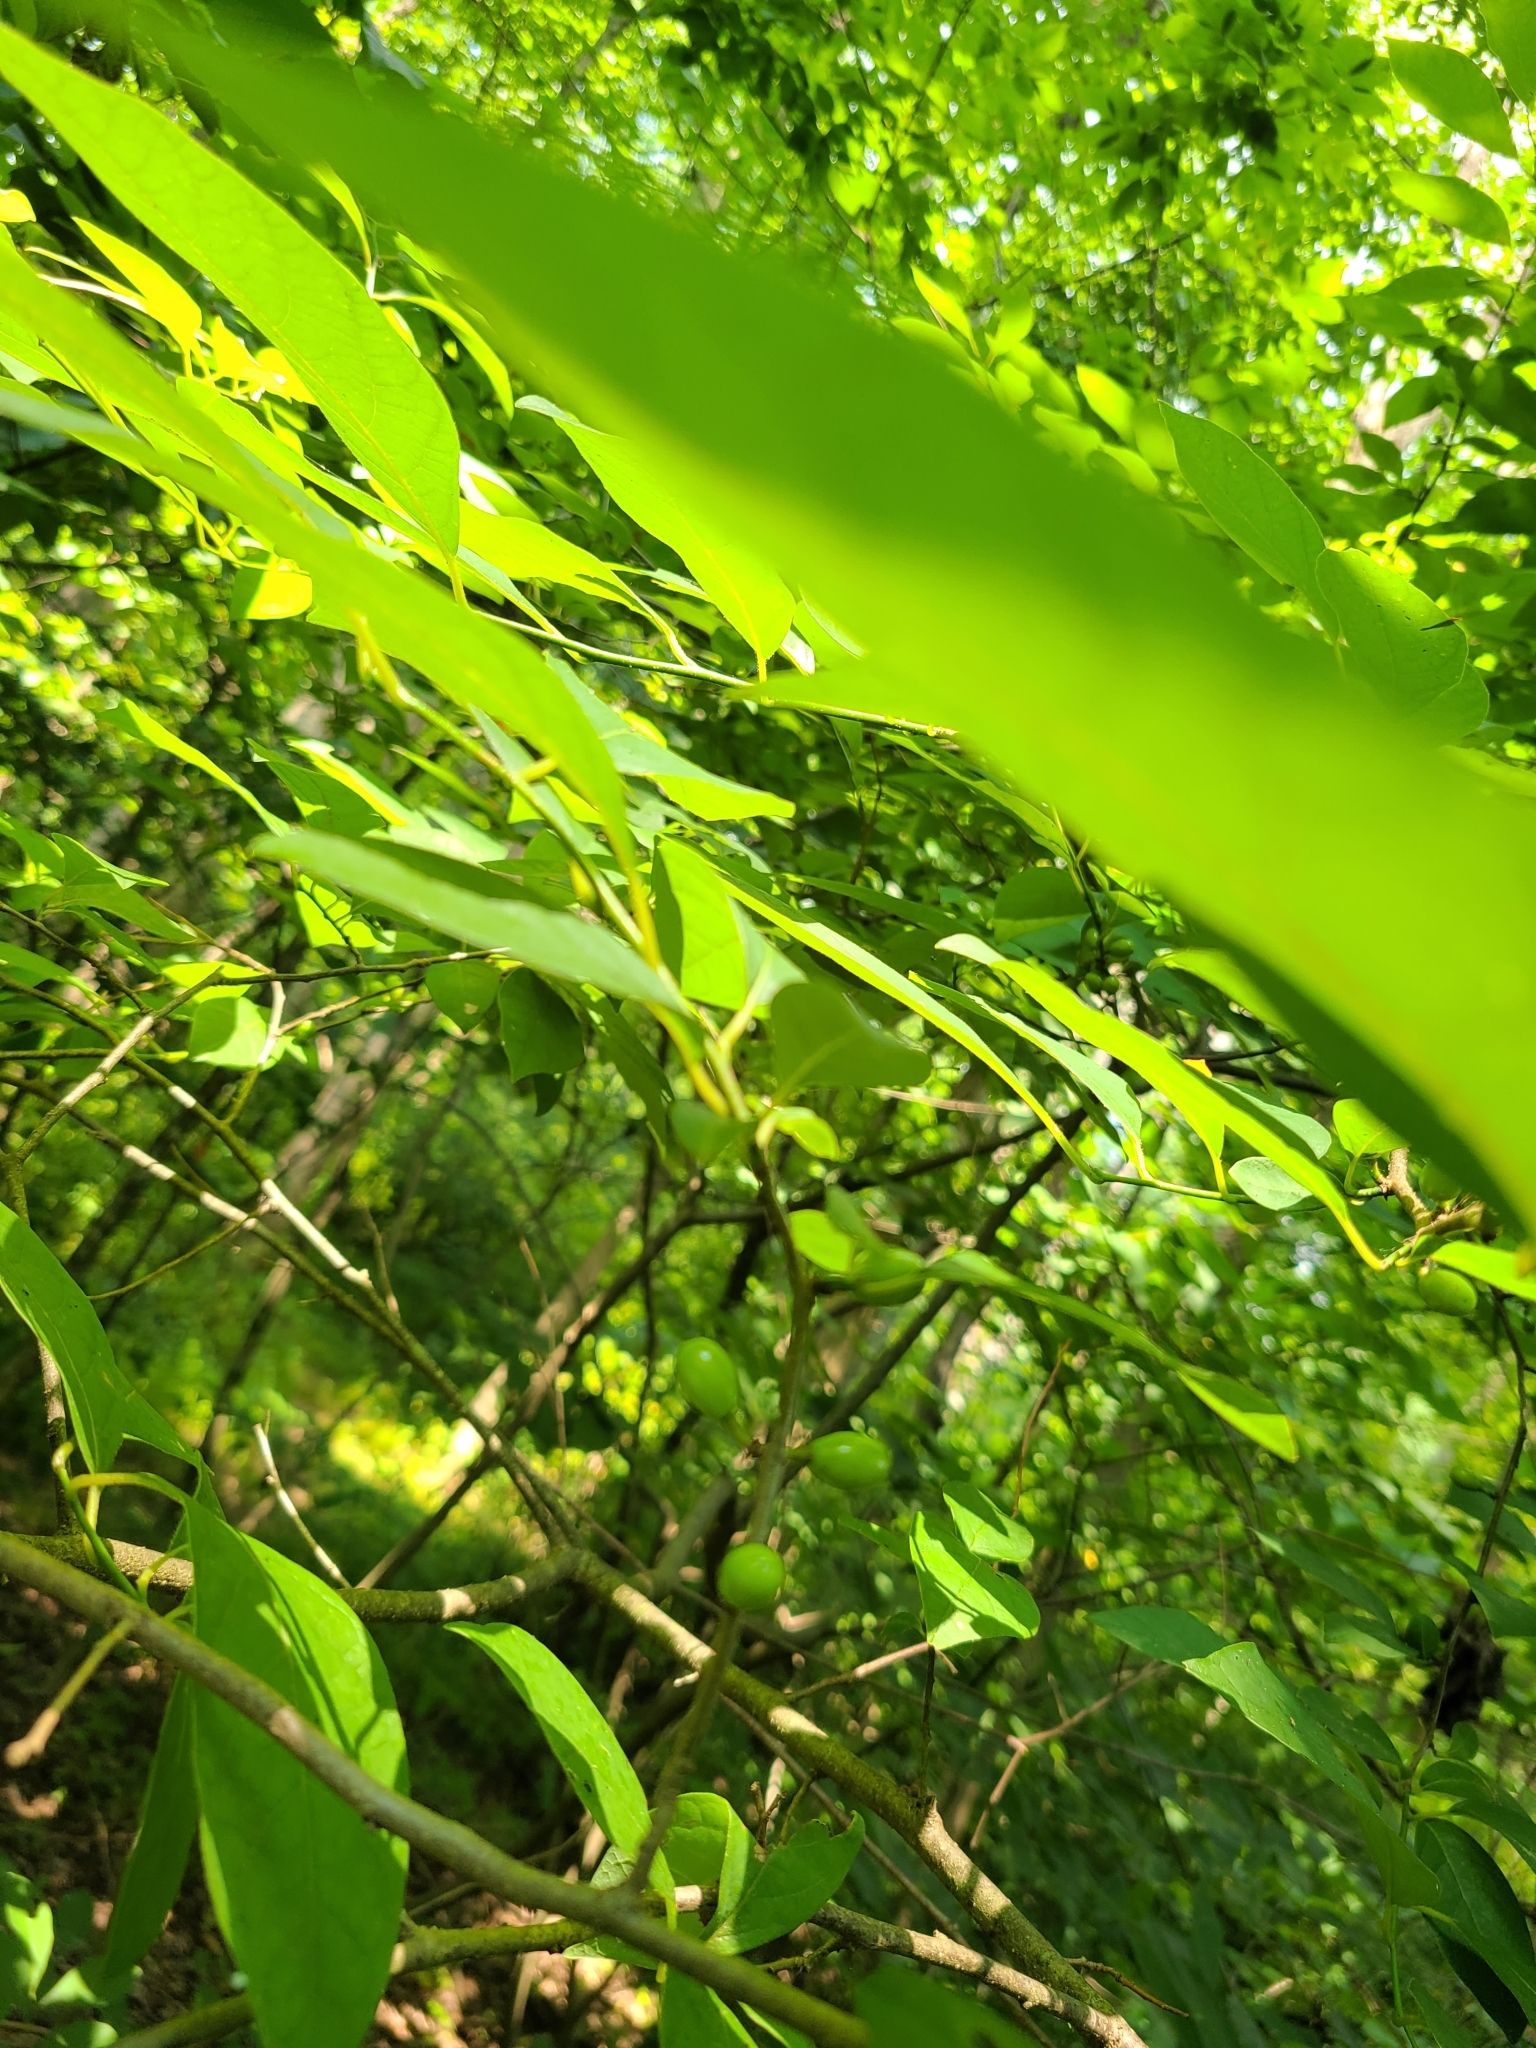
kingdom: Plantae
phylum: Tracheophyta
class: Magnoliopsida
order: Laurales
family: Lauraceae
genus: Lindera
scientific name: Lindera benzoin
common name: Spicebush
